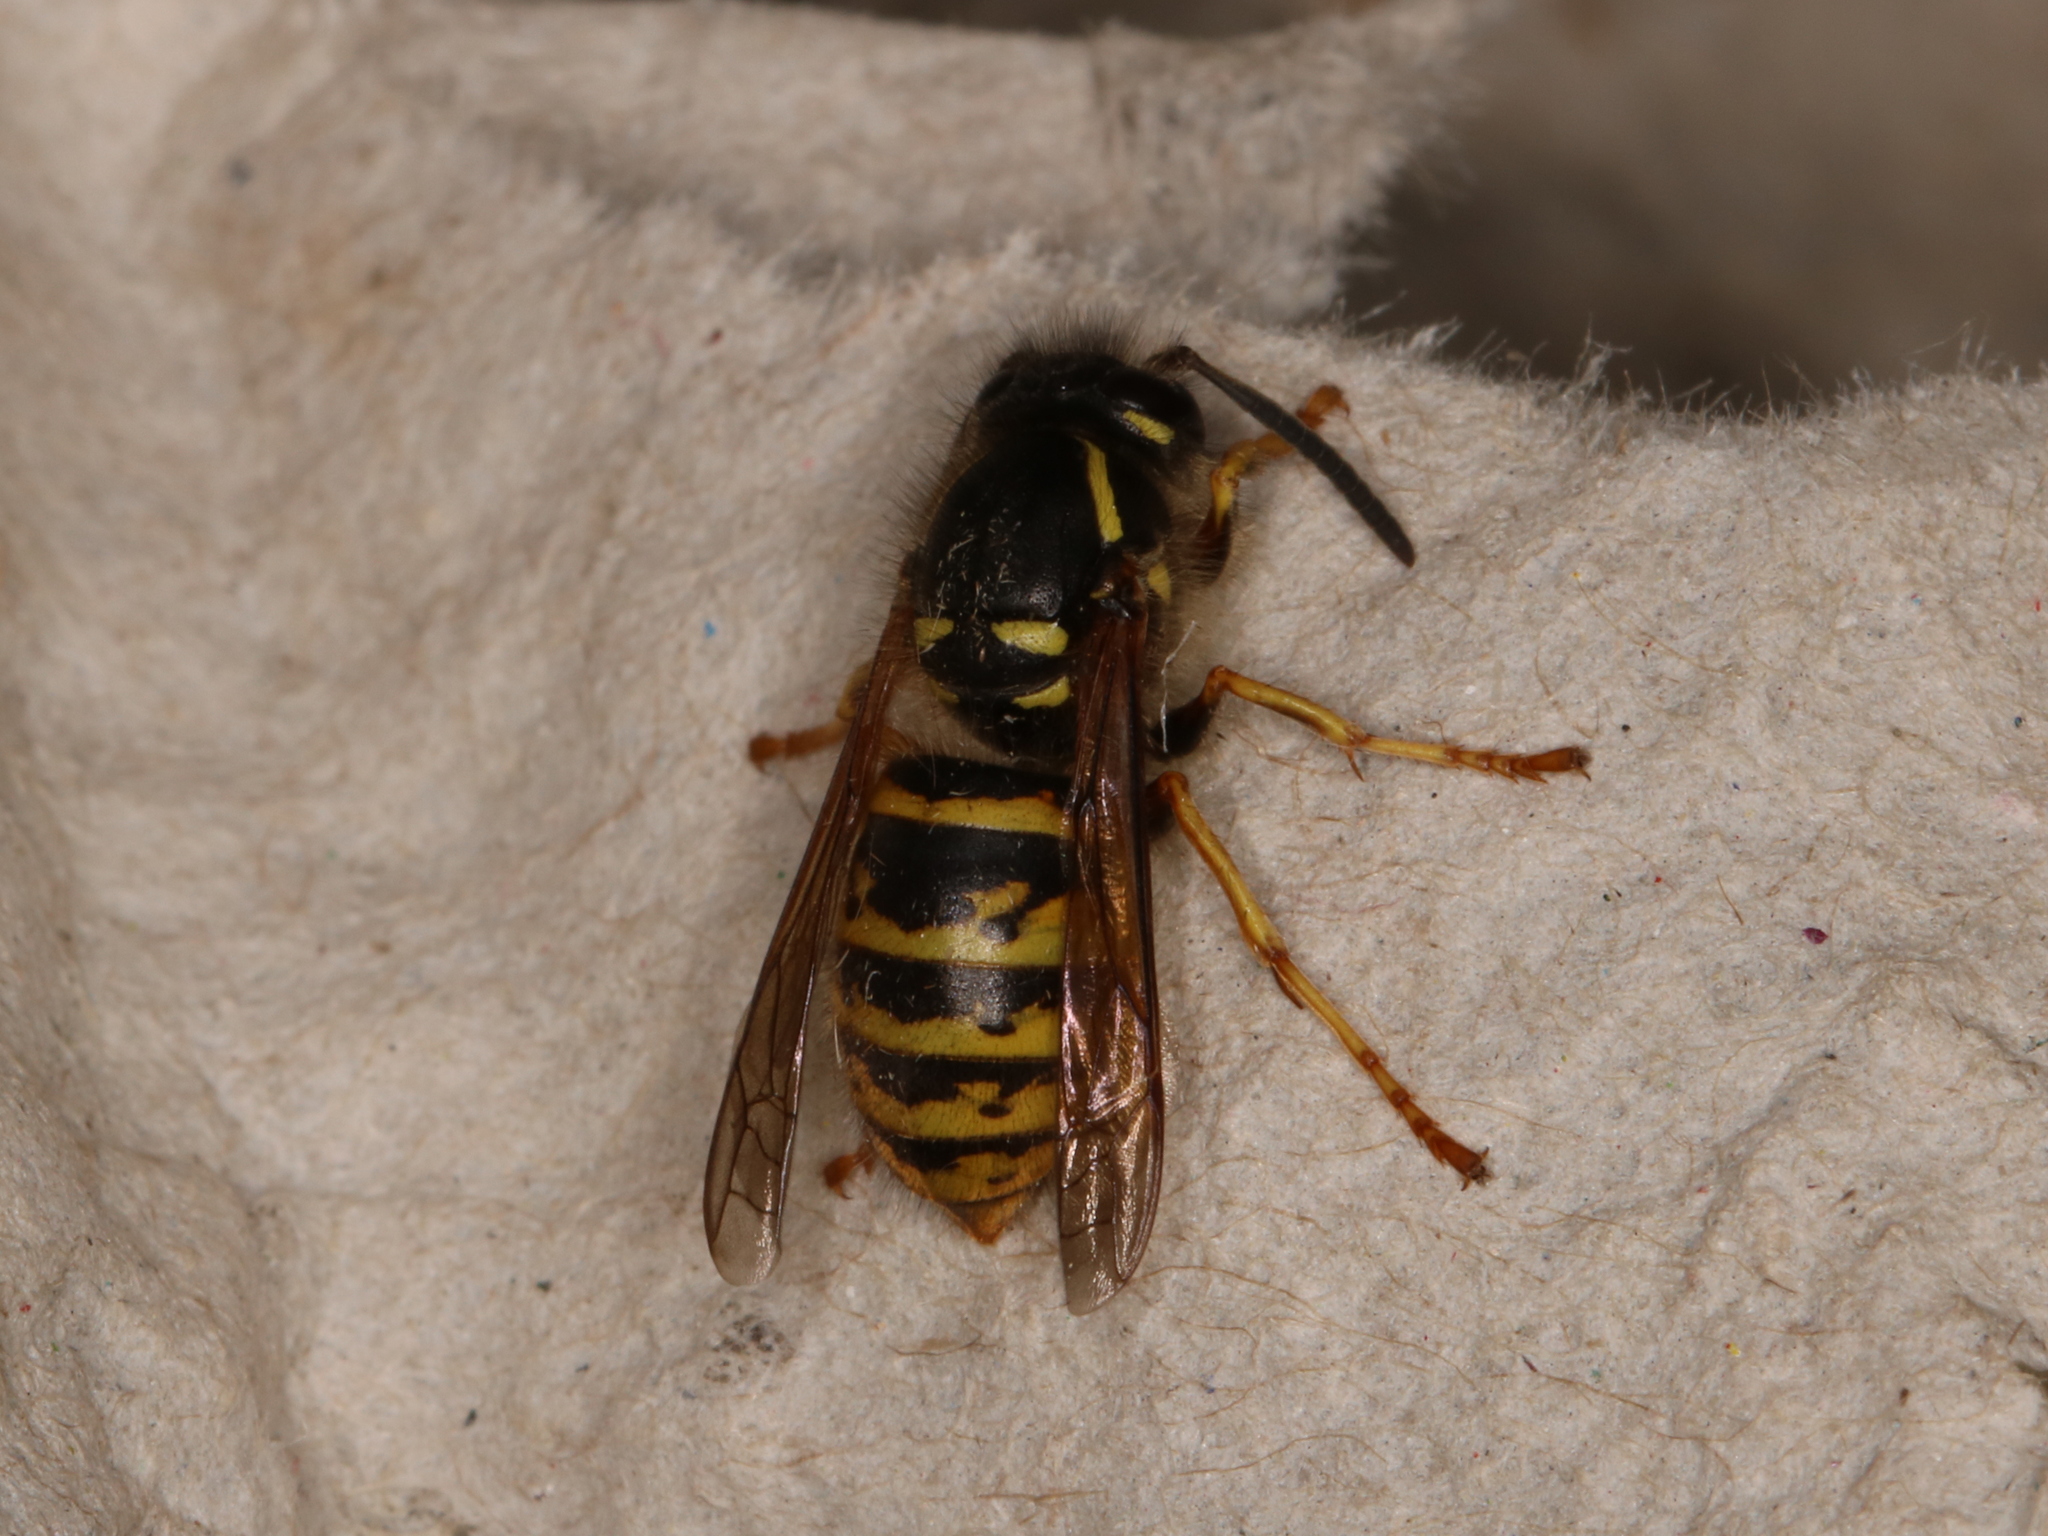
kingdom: Animalia
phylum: Arthropoda
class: Insecta
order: Hymenoptera
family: Vespidae
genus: Dolichovespula
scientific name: Dolichovespula saxonica
